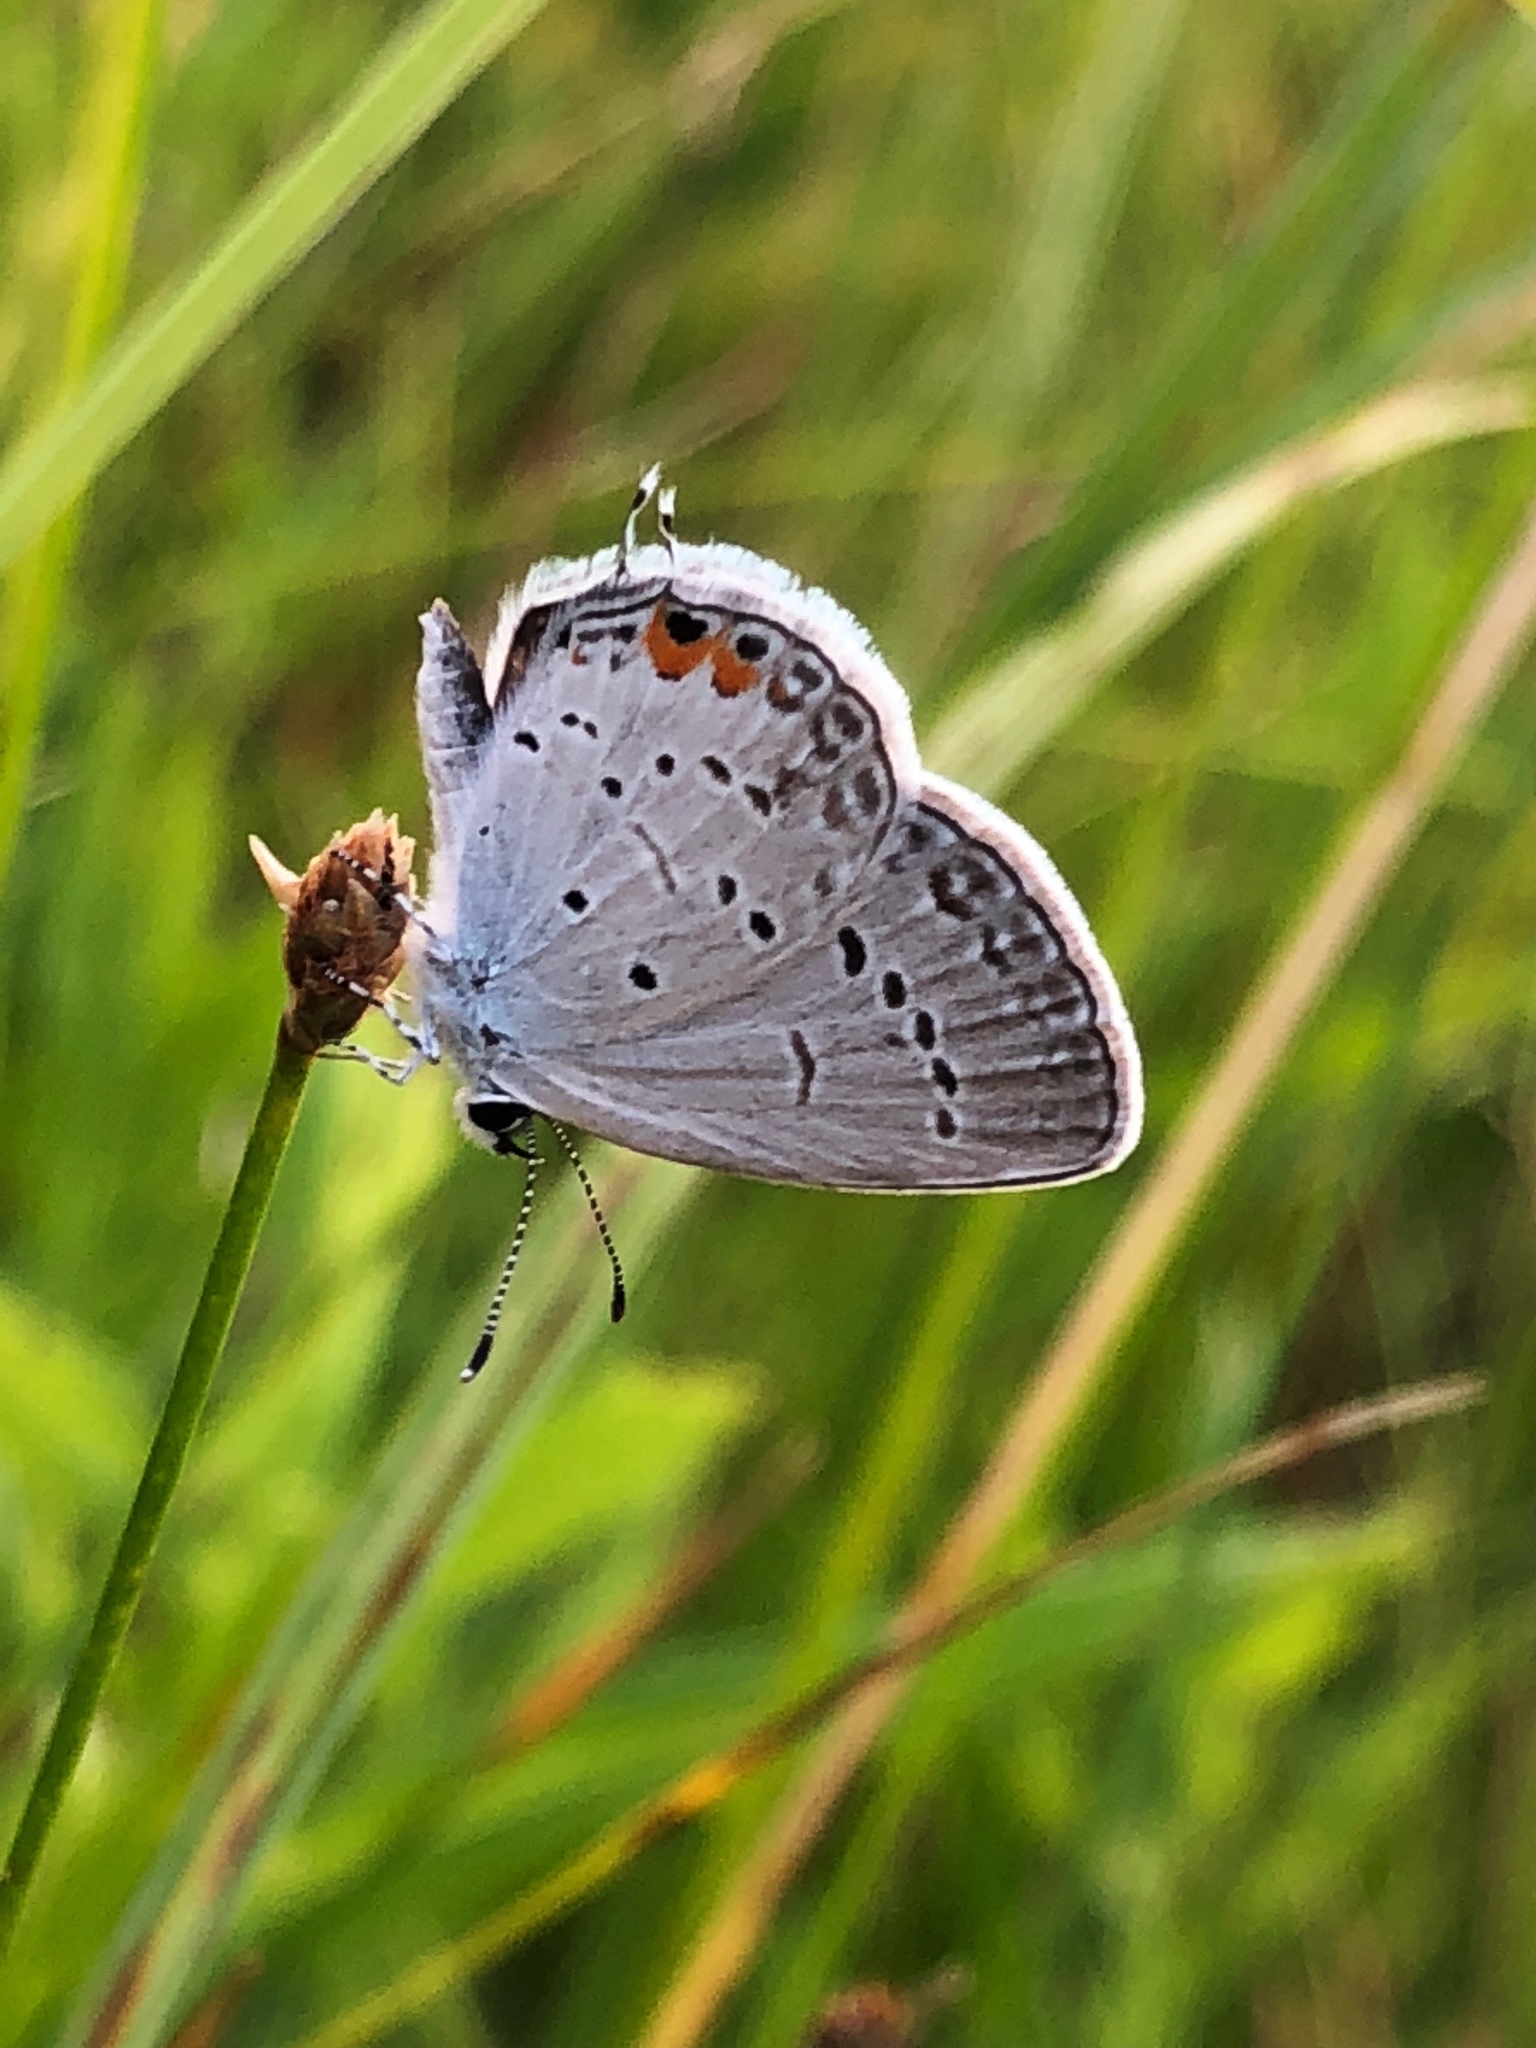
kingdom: Animalia
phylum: Arthropoda
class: Insecta
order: Lepidoptera
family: Lycaenidae
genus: Elkalyce
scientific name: Elkalyce comyntas
